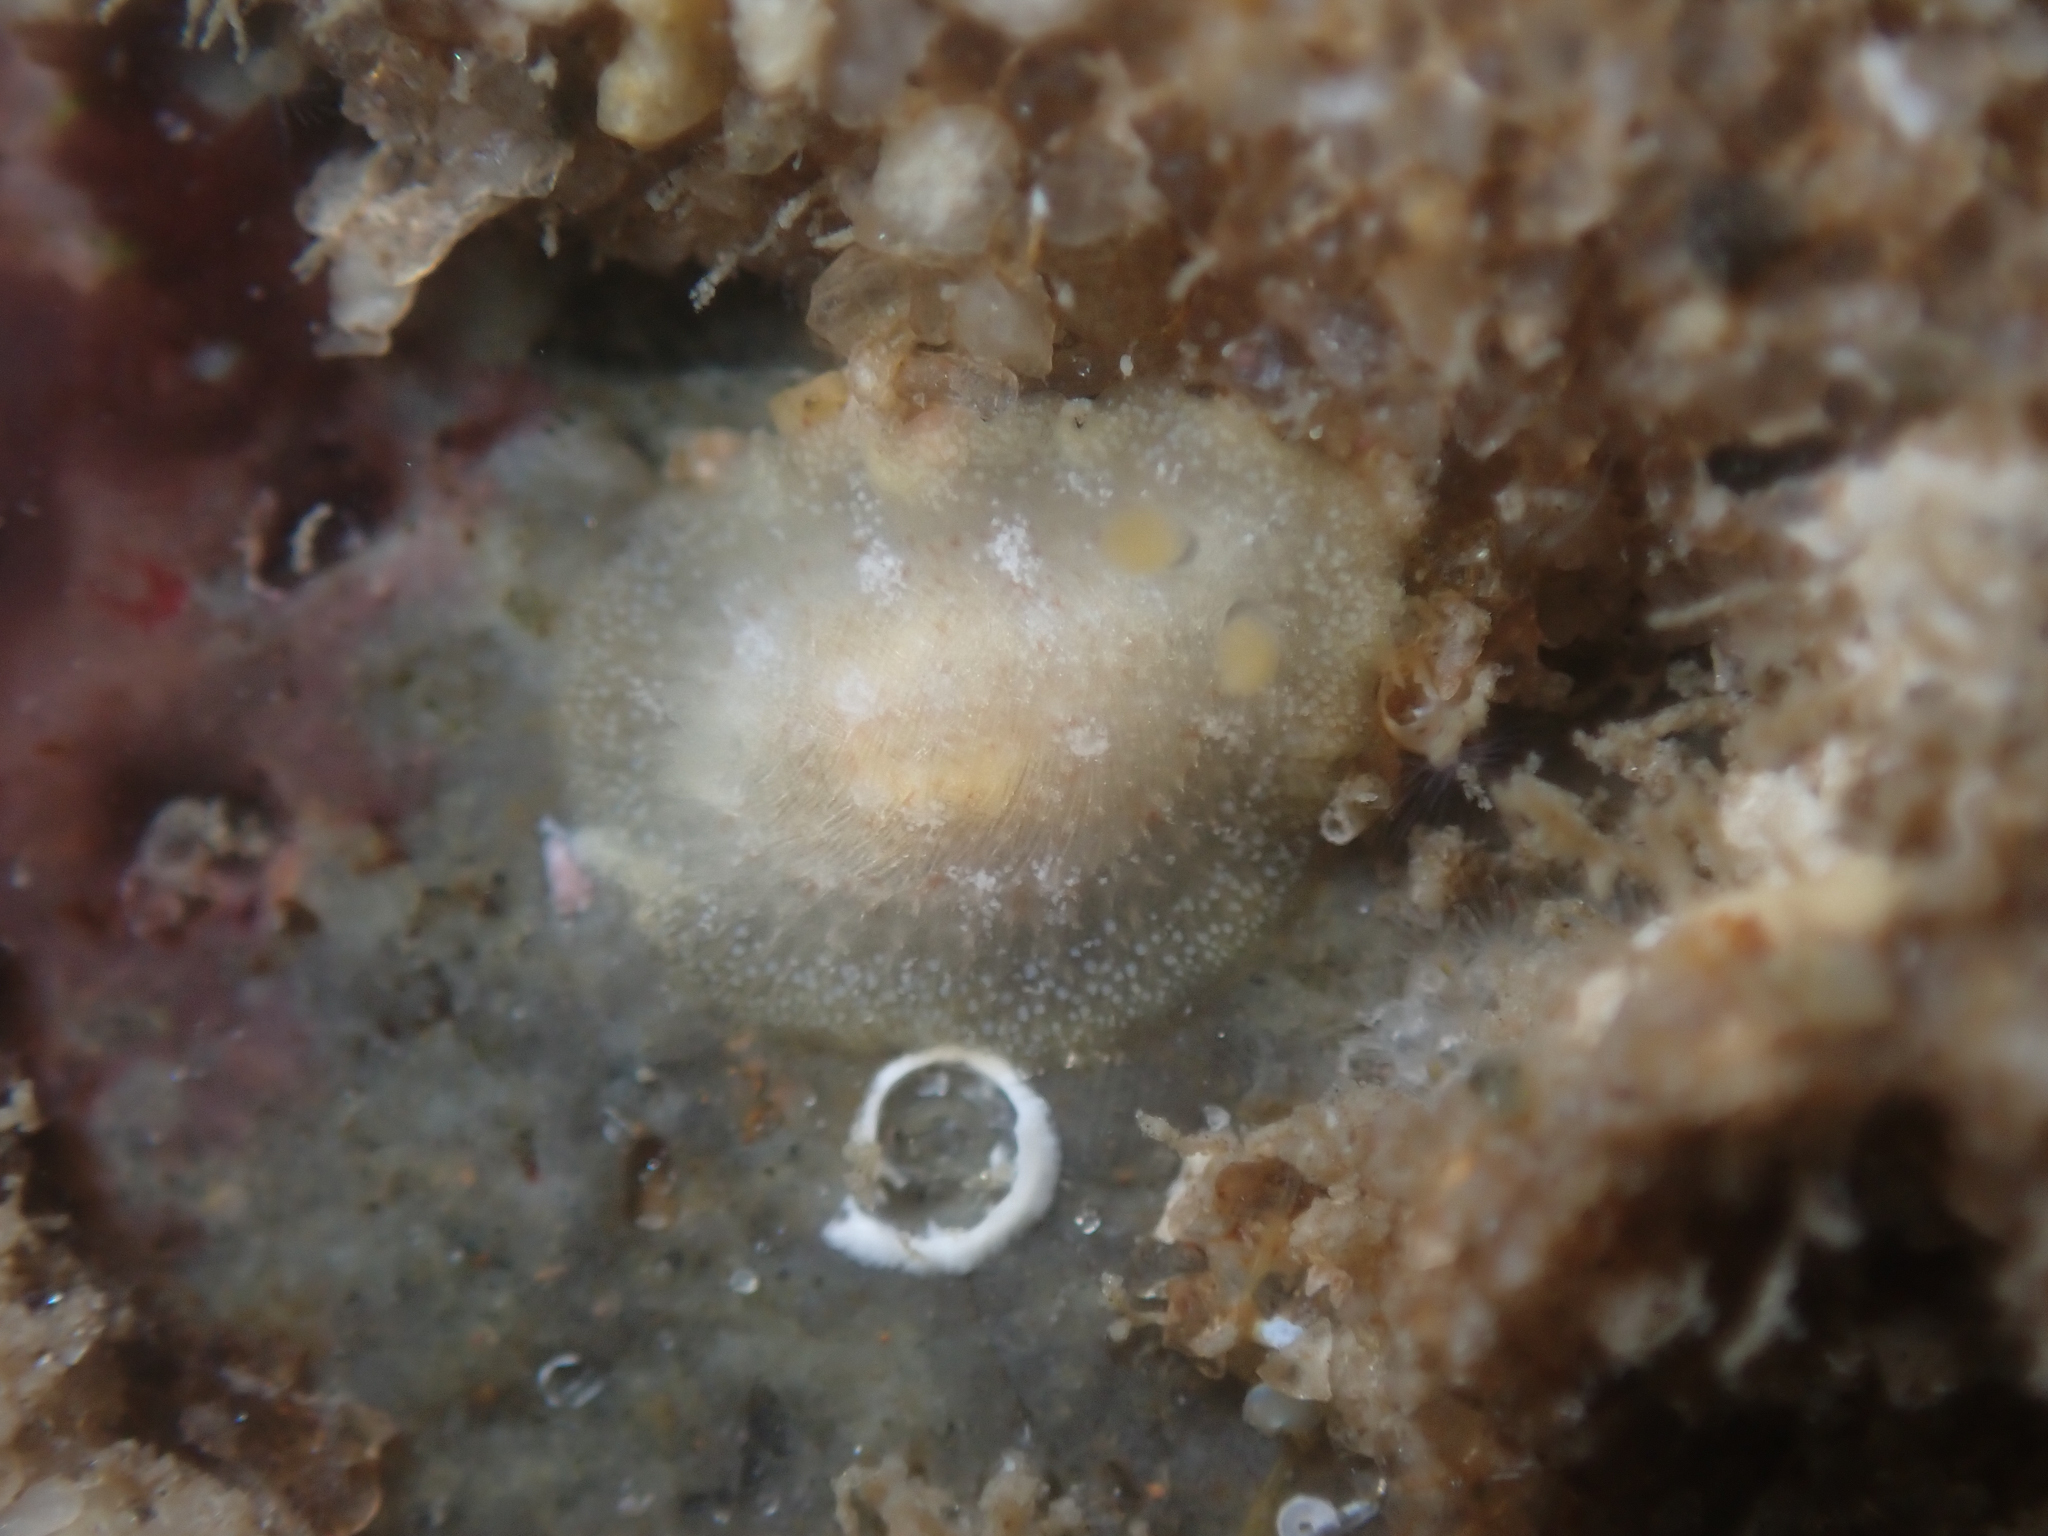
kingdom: Animalia
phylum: Mollusca
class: Gastropoda
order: Nudibranchia
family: Dorididae
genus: Conualevia
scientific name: Conualevia alba
